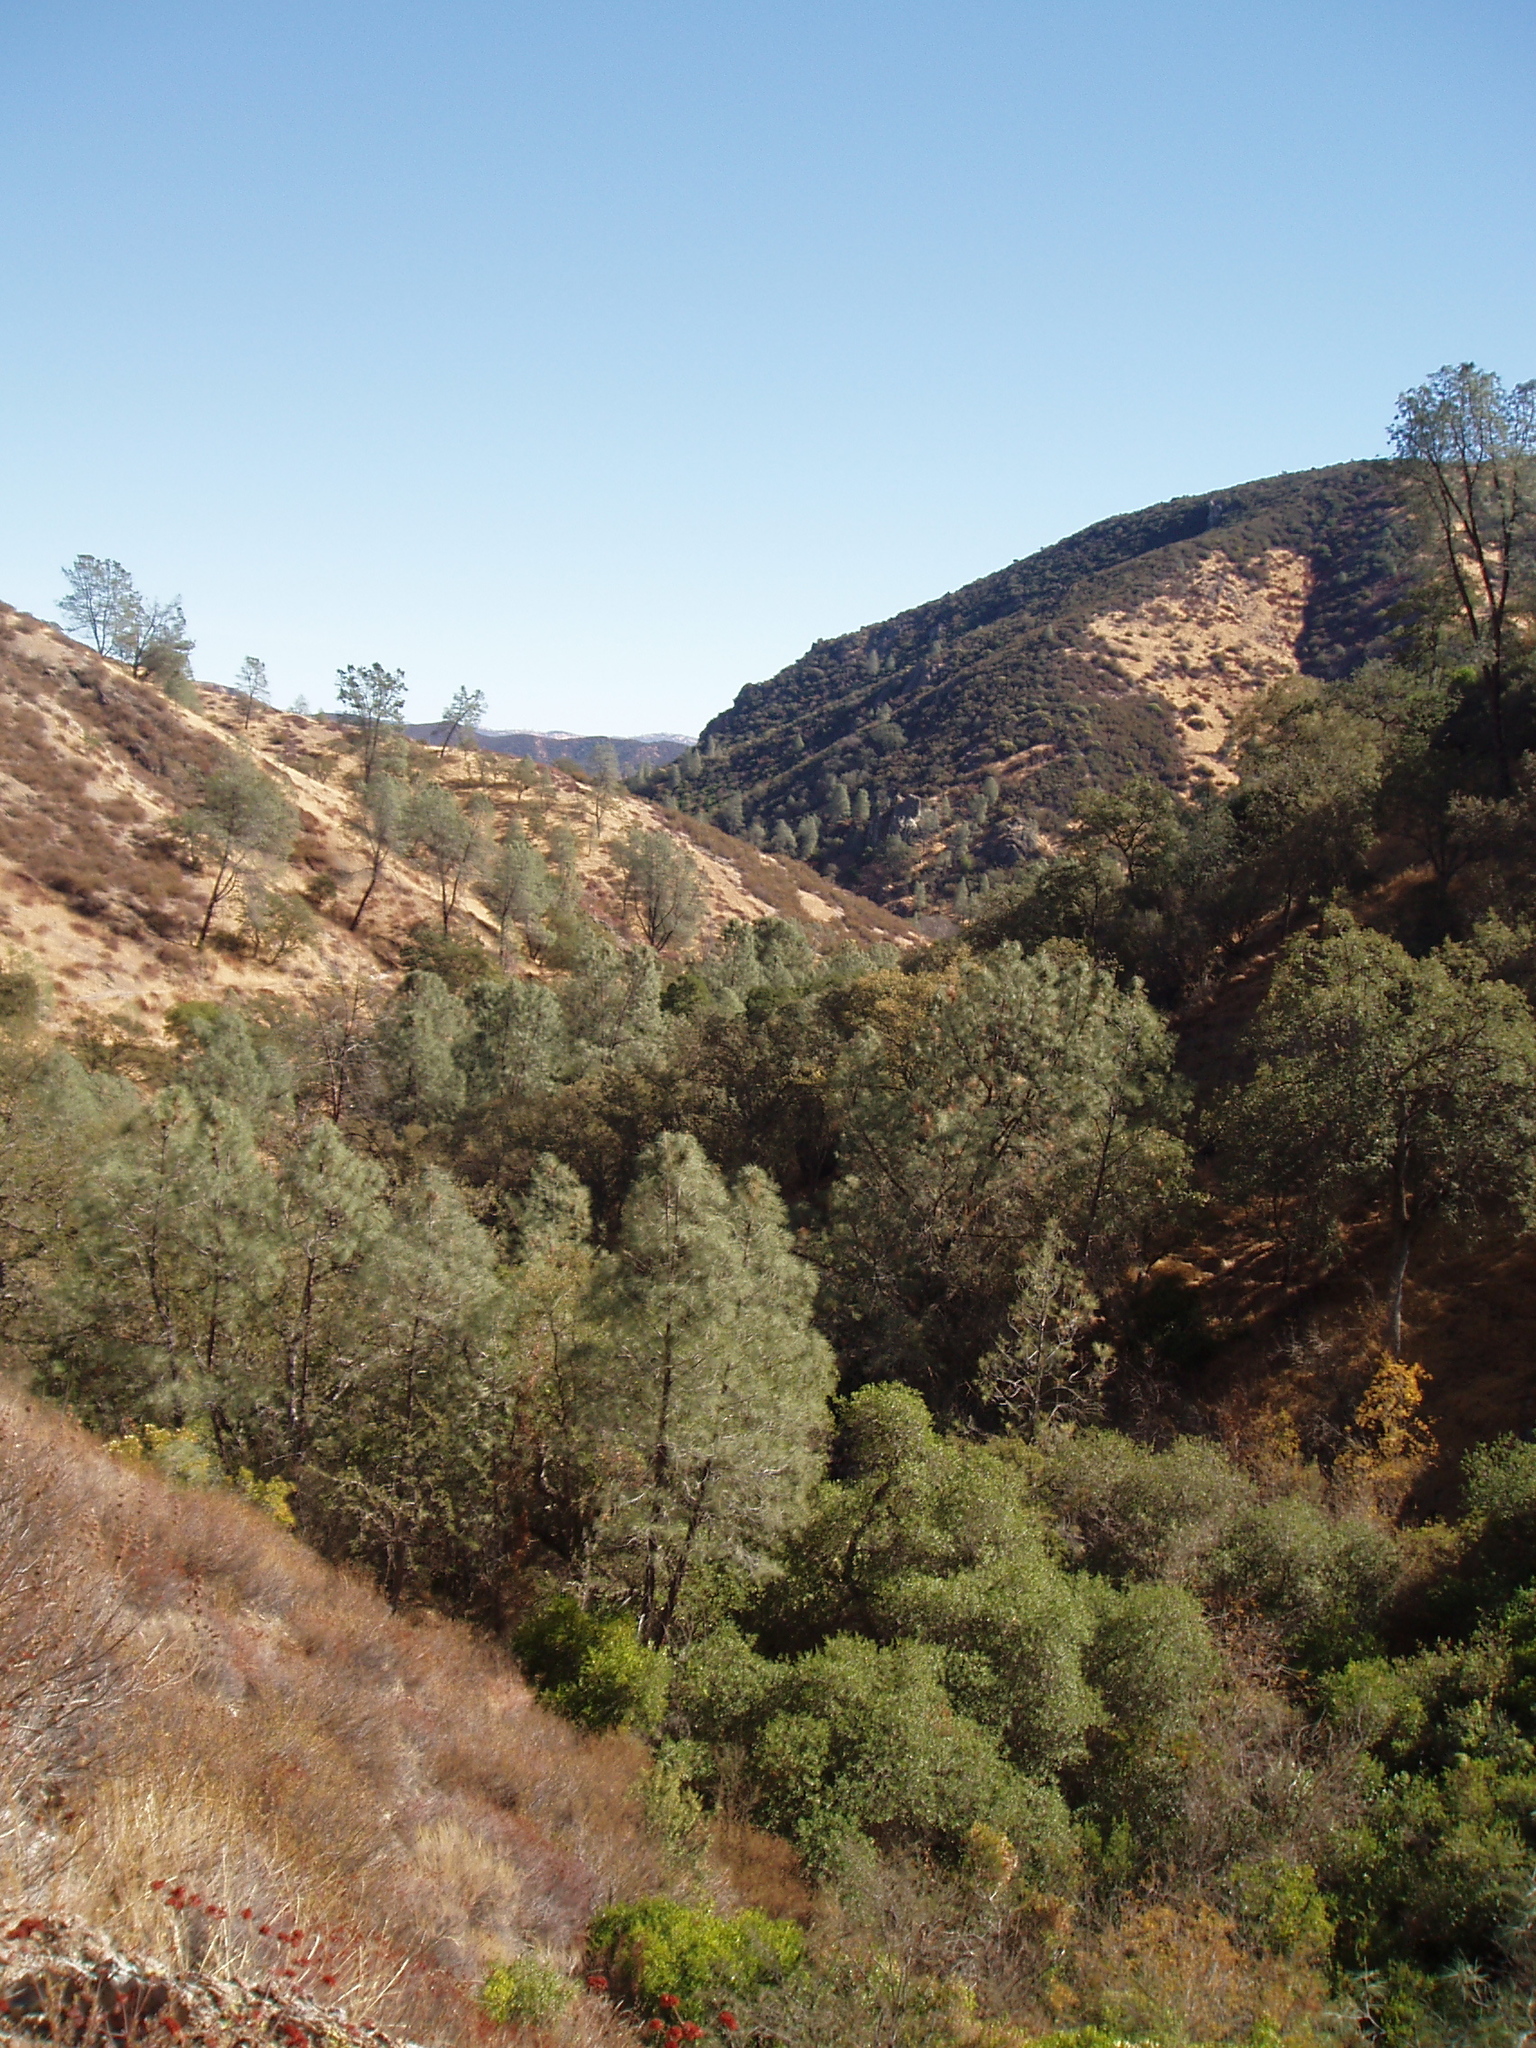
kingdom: Plantae
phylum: Tracheophyta
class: Pinopsida
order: Pinales
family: Pinaceae
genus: Pinus
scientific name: Pinus sabiniana
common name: Bull pine
